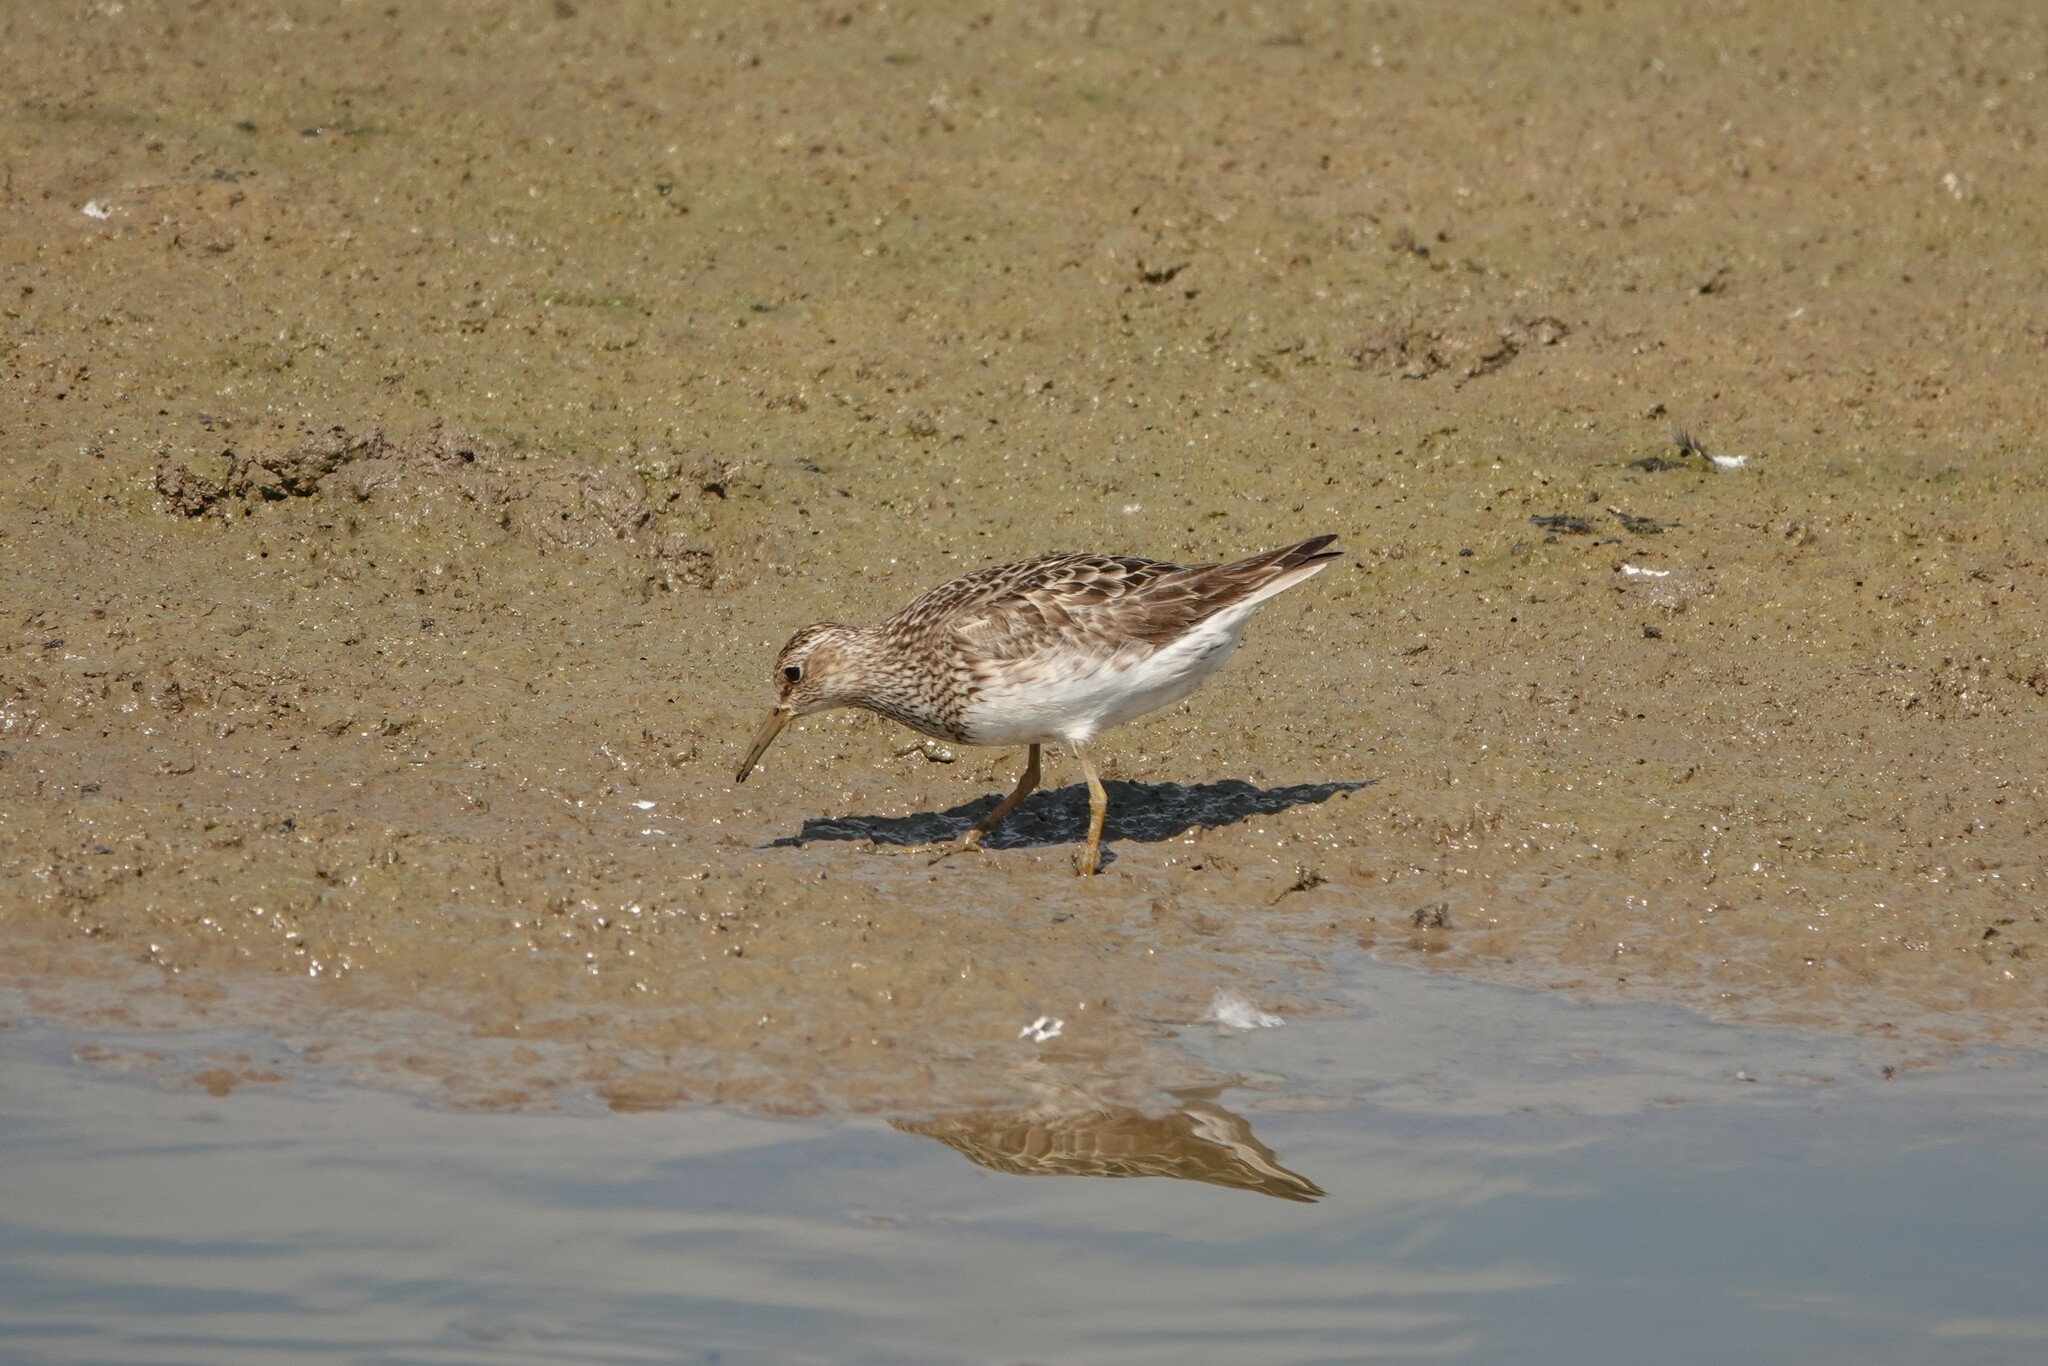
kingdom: Animalia
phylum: Chordata
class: Aves
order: Charadriiformes
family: Scolopacidae
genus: Calidris
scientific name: Calidris melanotos
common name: Pectoral sandpiper
